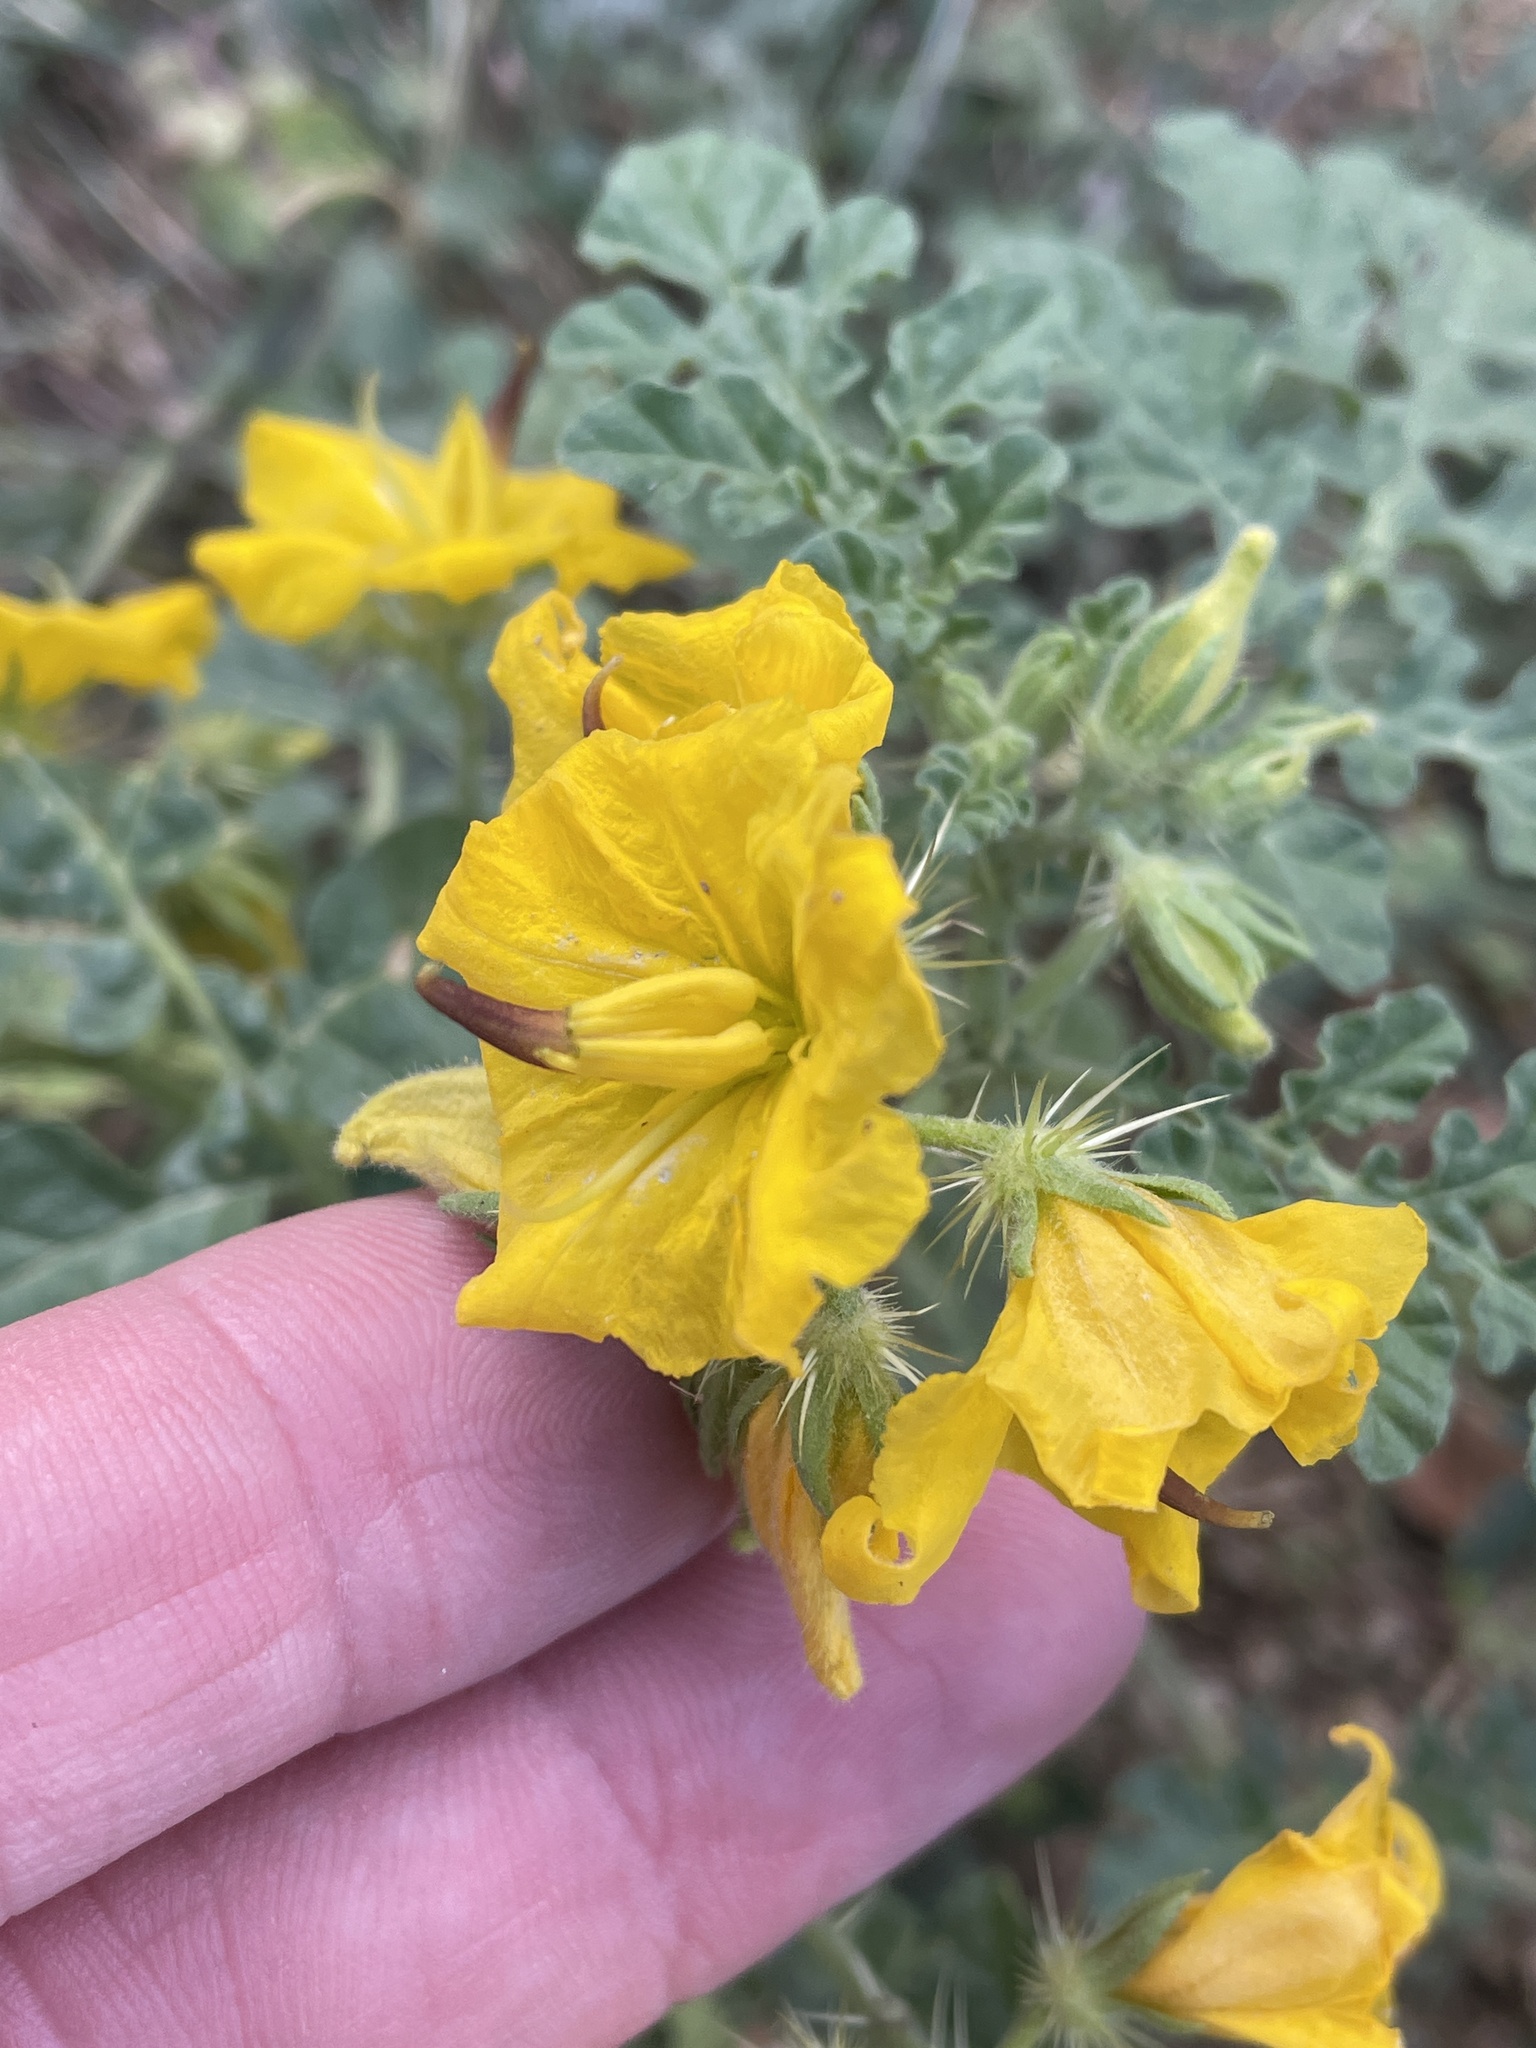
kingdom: Plantae
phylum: Tracheophyta
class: Magnoliopsida
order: Solanales
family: Solanaceae
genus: Solanum
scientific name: Solanum angustifolium
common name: Buffalobur nightshade
